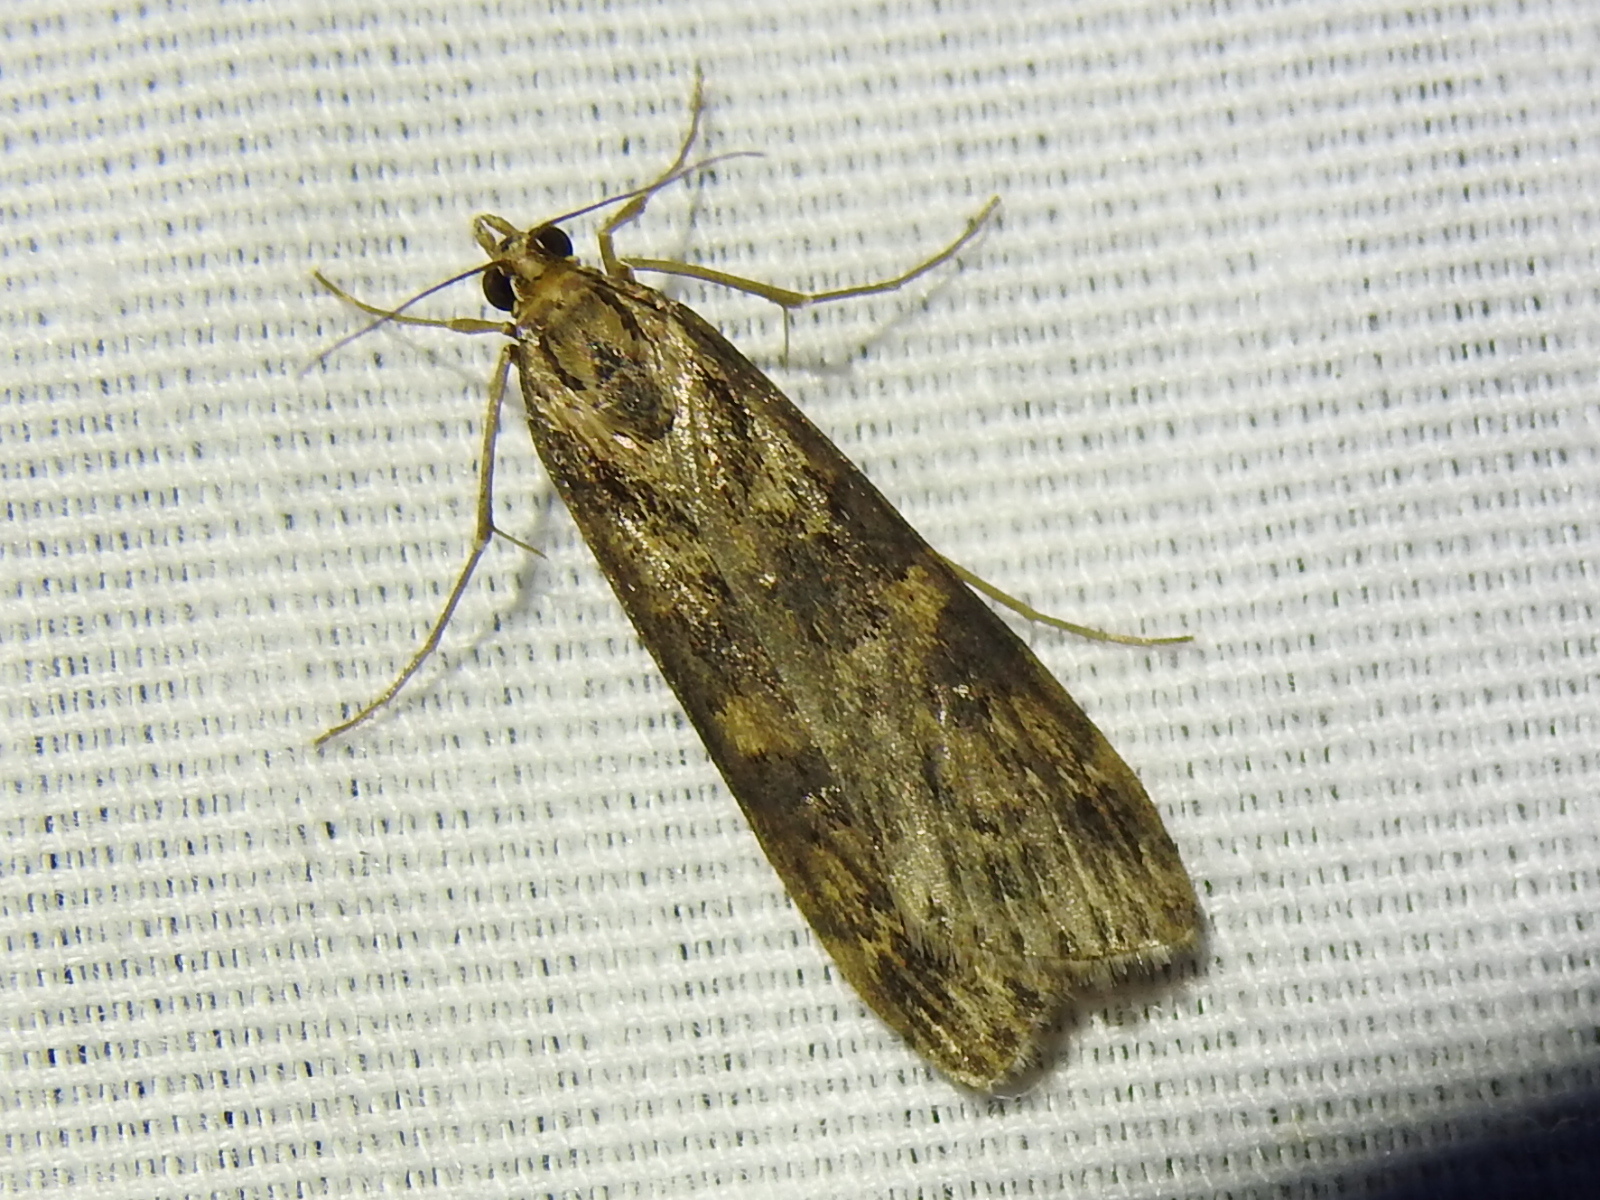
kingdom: Animalia
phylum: Arthropoda
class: Insecta
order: Lepidoptera
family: Crambidae
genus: Nomophila
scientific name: Nomophila nearctica
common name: American rush veneer
